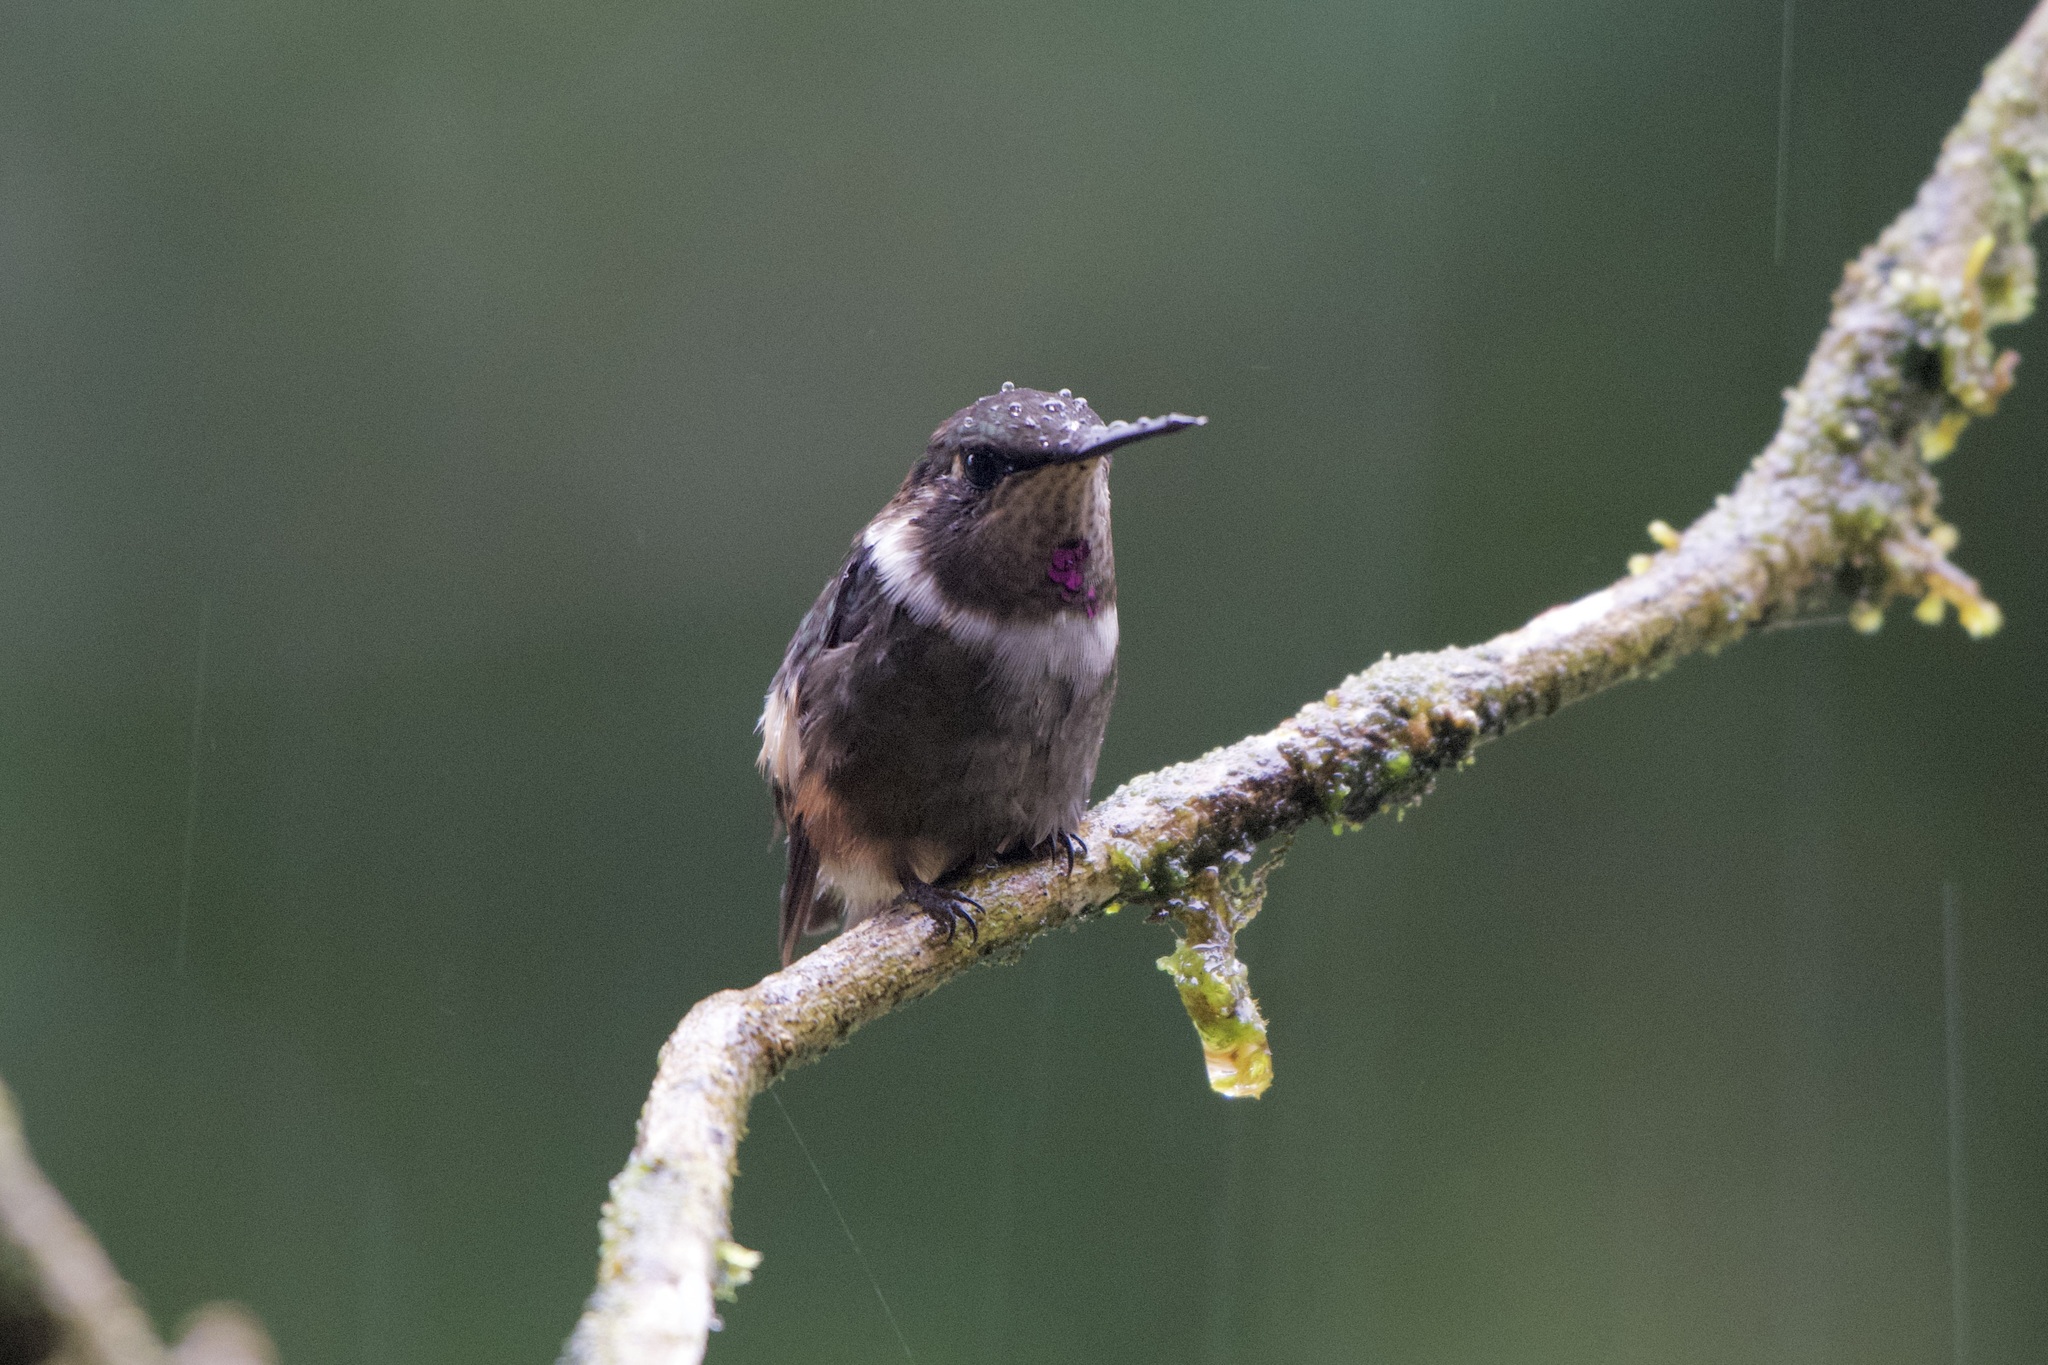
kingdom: Animalia
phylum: Chordata
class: Aves
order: Apodiformes
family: Trochilidae
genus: Calliphlox
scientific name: Calliphlox mitchellii
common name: Purple-throated woodstar
